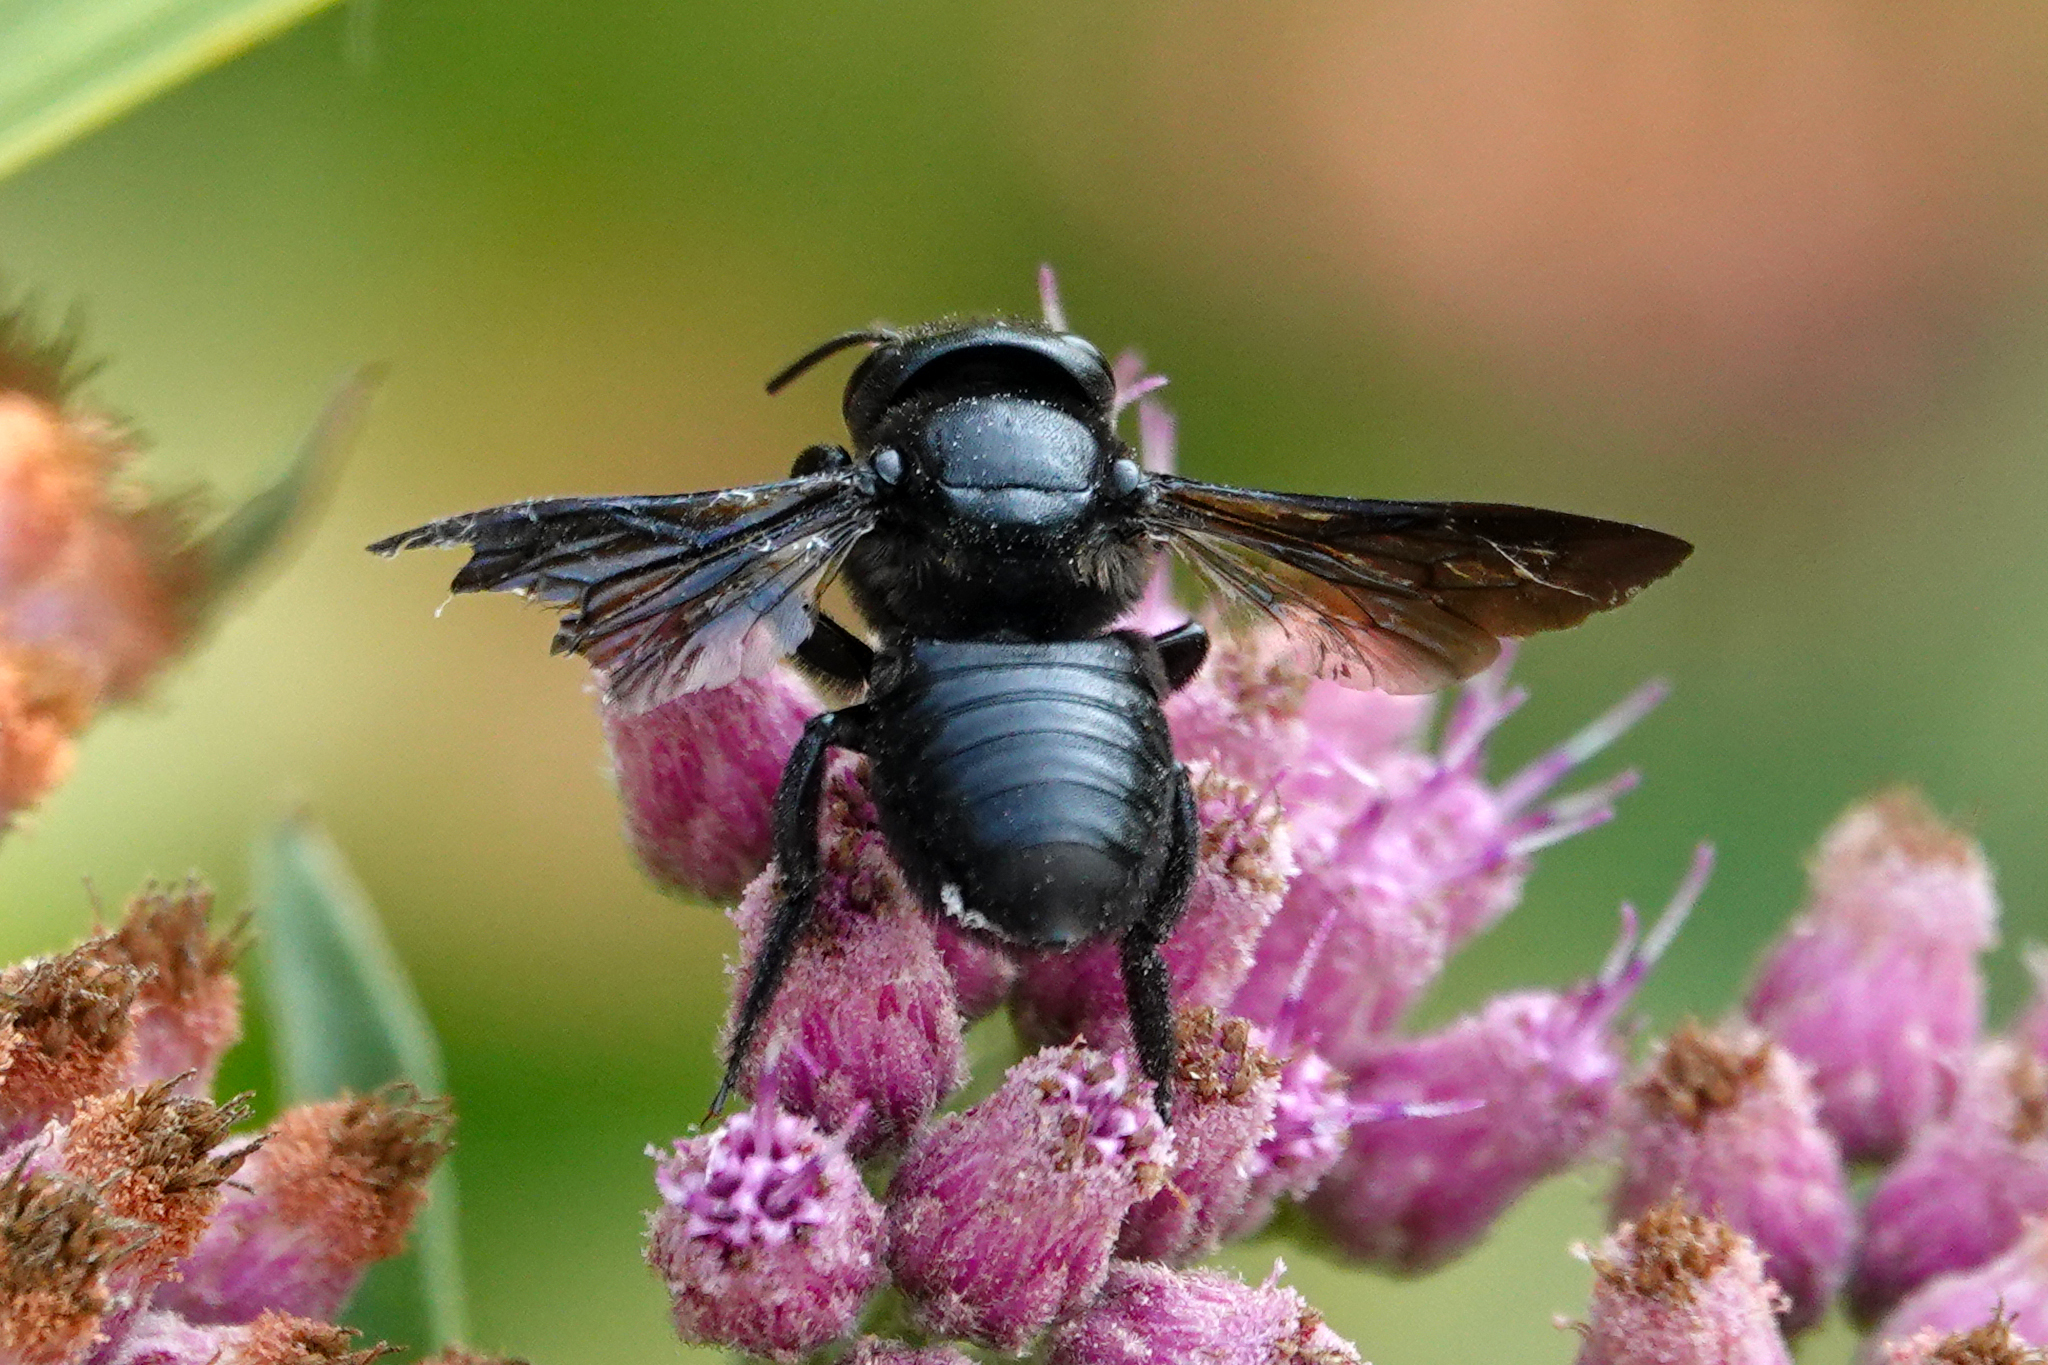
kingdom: Animalia
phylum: Arthropoda
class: Insecta
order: Hymenoptera
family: Megachilidae
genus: Megachile
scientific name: Megachile xylocopoides
